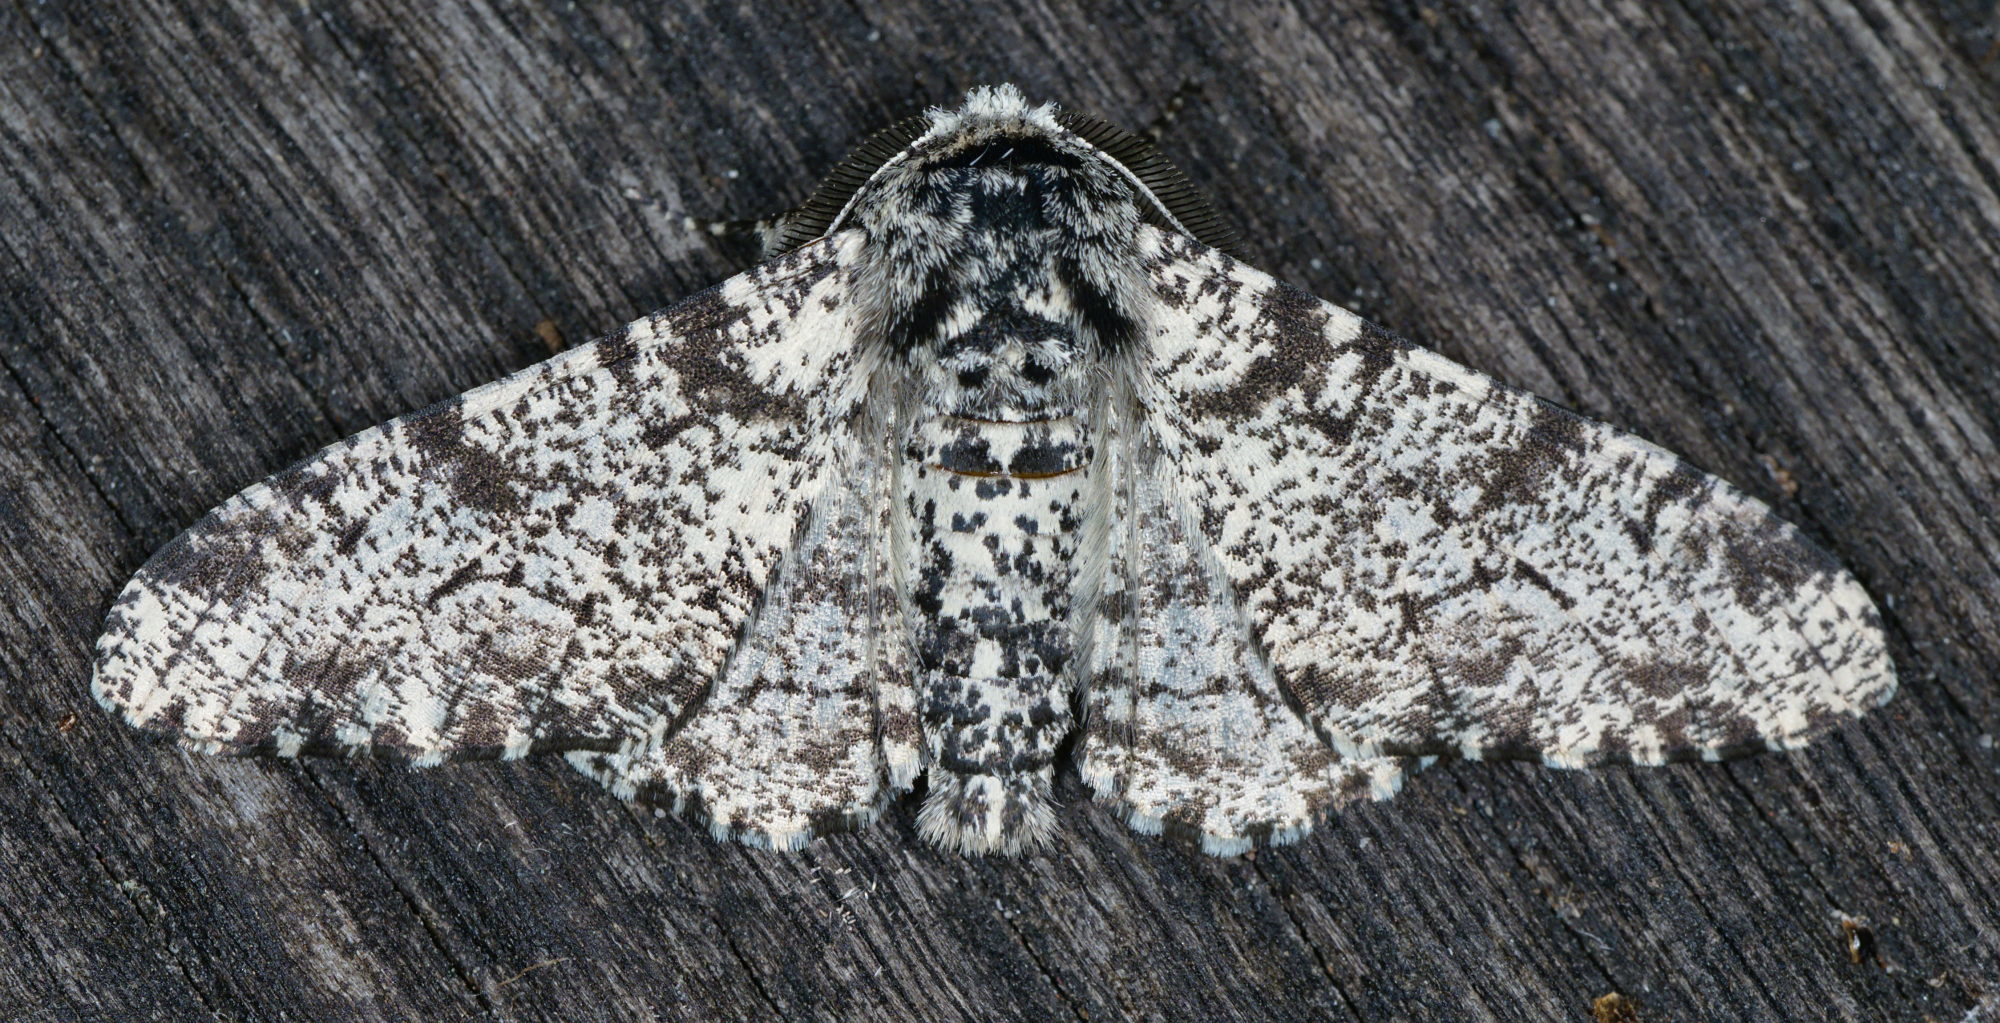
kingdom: Animalia
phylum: Arthropoda
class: Insecta
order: Lepidoptera
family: Geometridae
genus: Biston
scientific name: Biston betularia
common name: Peppered moth
